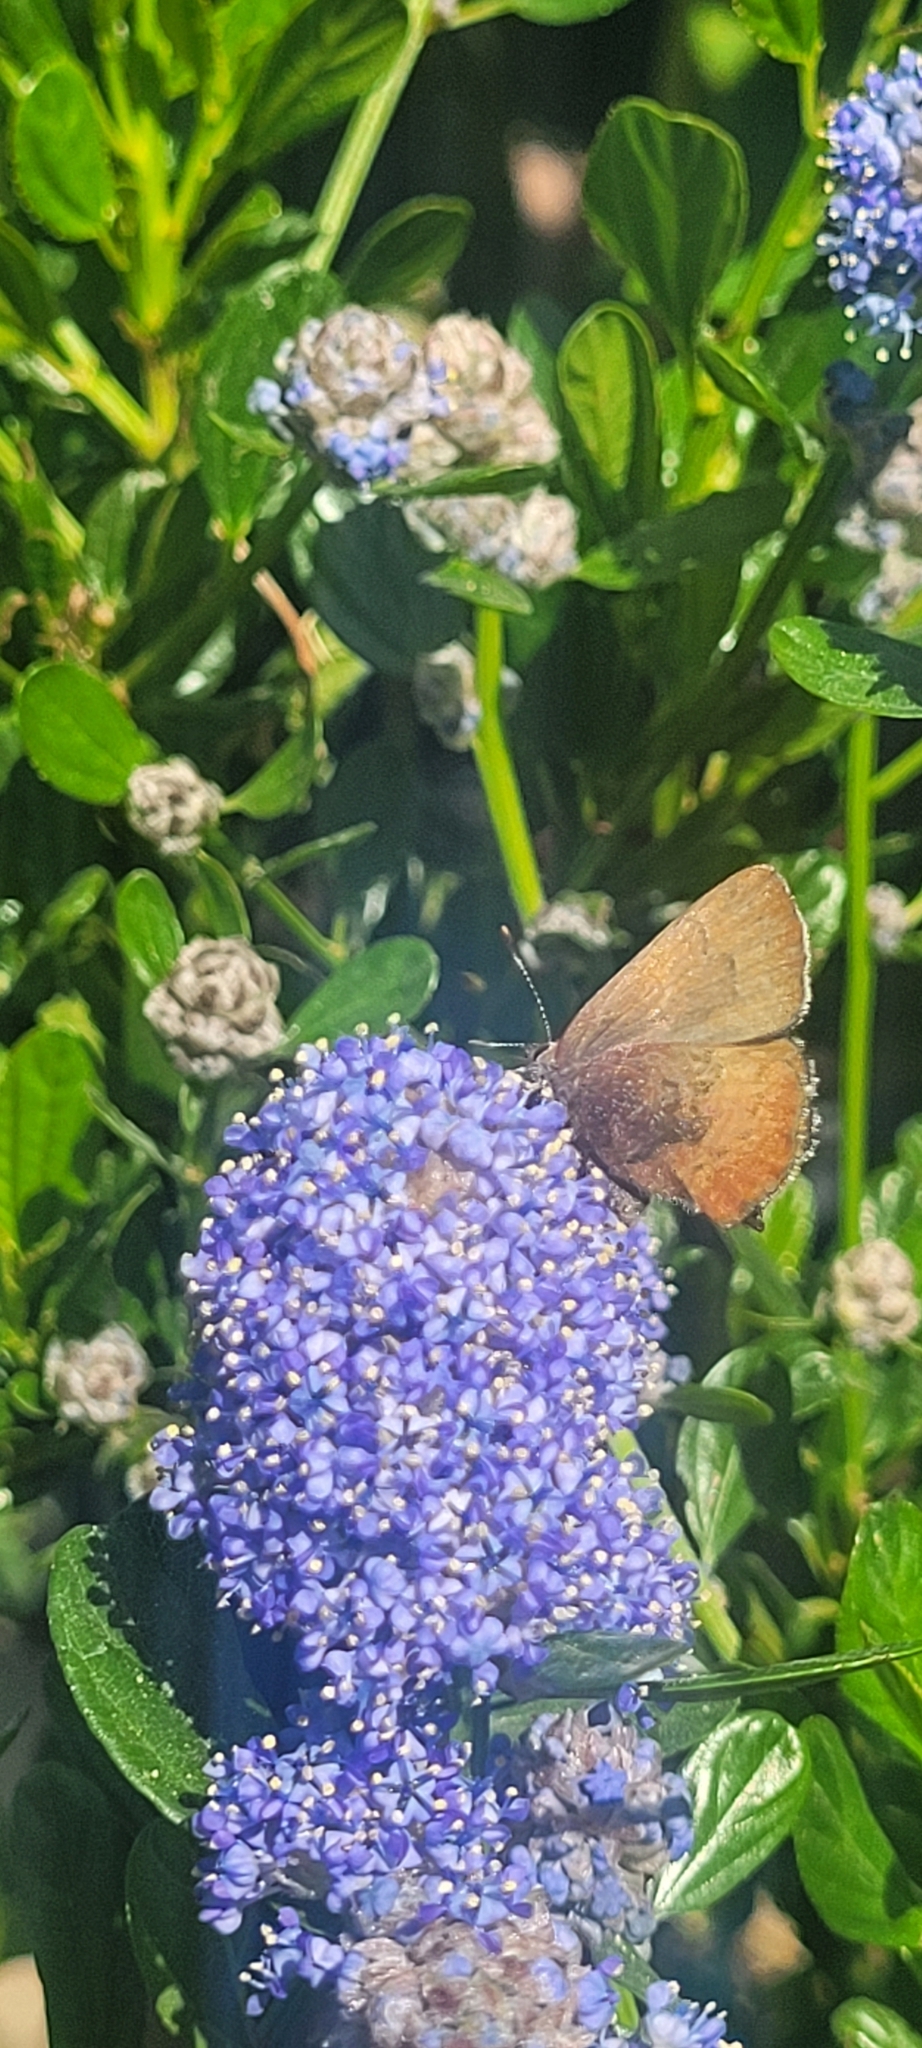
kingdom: Animalia
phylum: Arthropoda
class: Insecta
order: Lepidoptera
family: Lycaenidae
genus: Incisalia
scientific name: Incisalia irioides
